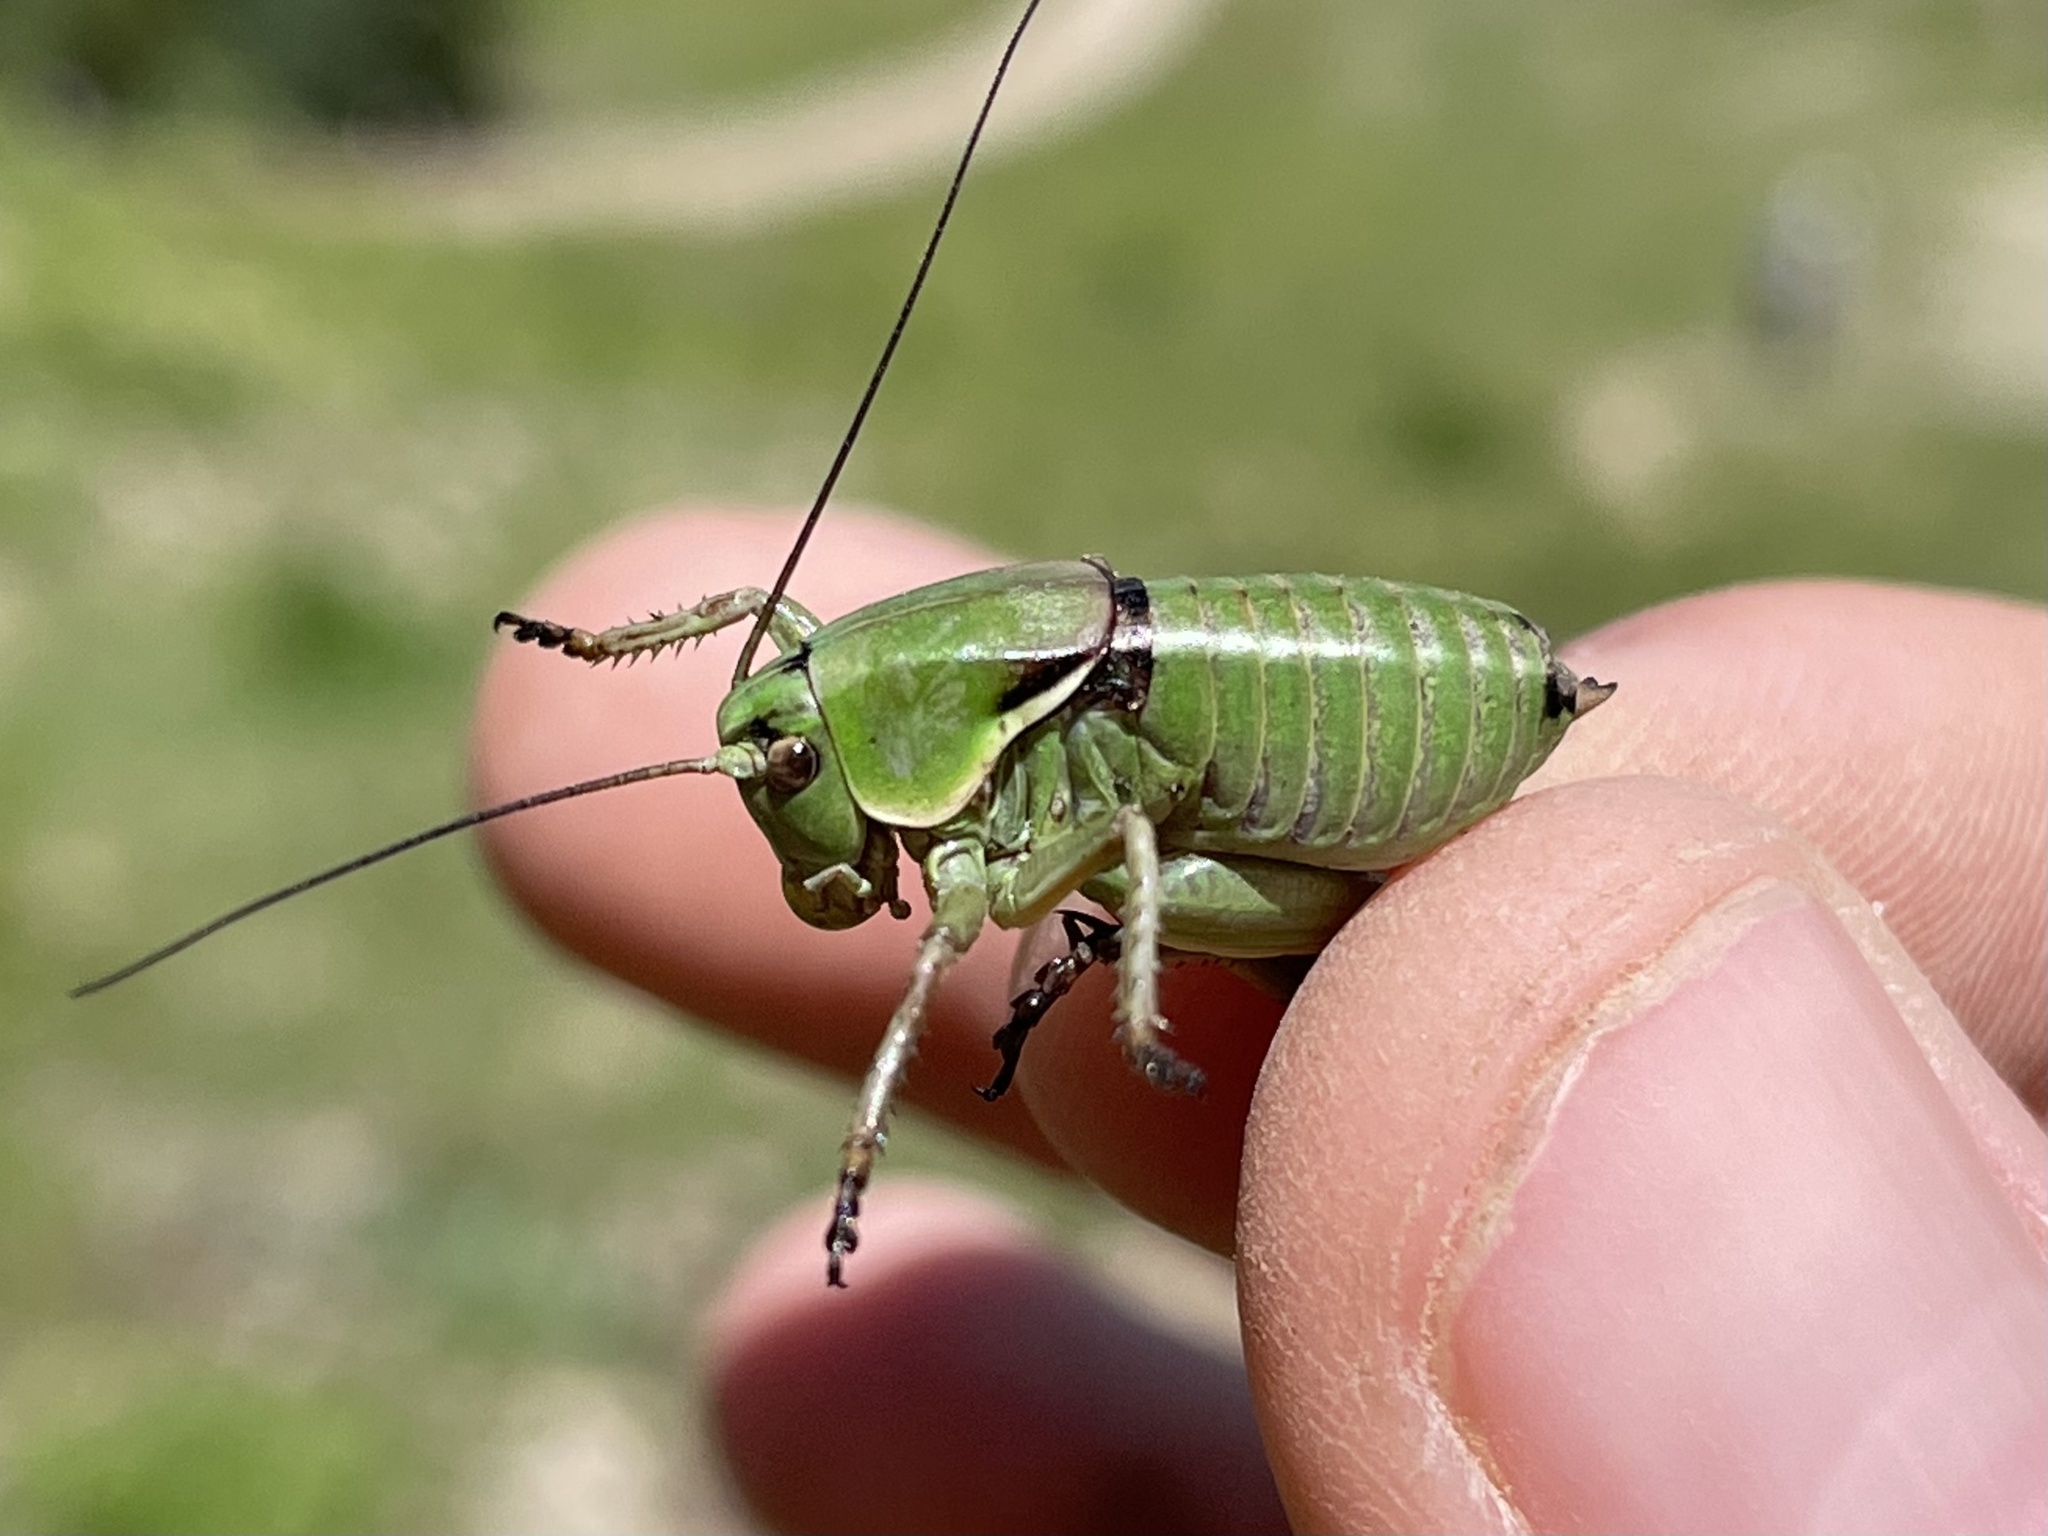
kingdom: Animalia
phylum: Arthropoda
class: Insecta
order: Orthoptera
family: Tettigoniidae
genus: Anabrus
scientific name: Anabrus simplex
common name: Mormon cricket
